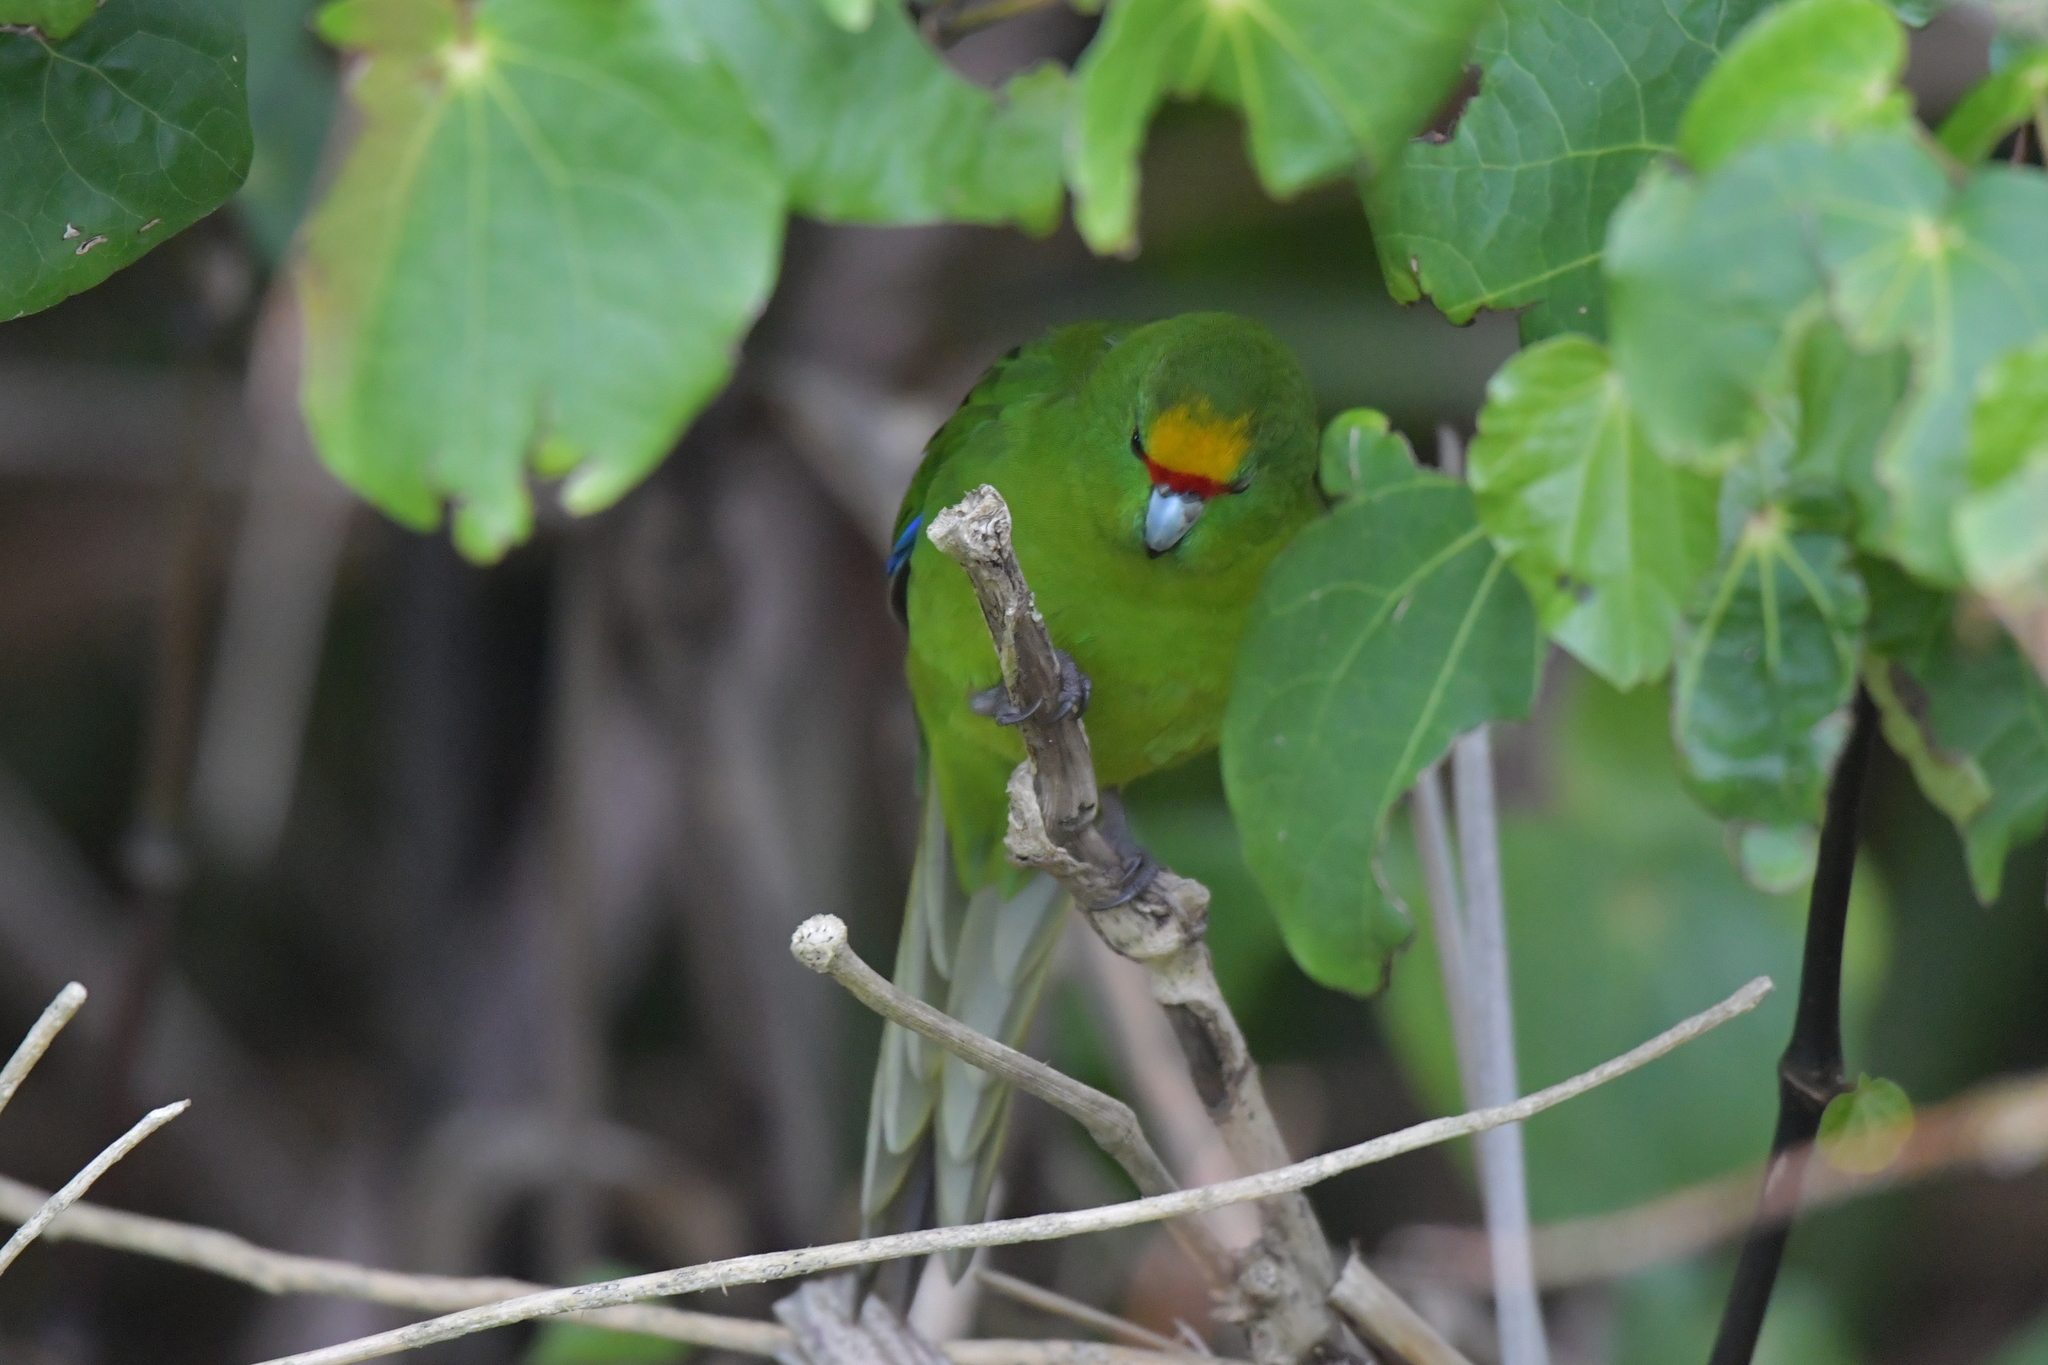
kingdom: Animalia
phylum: Chordata
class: Aves
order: Psittaciformes
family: Psittacidae
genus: Cyanoramphus
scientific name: Cyanoramphus auriceps
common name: Yellow-crowned parakeet
